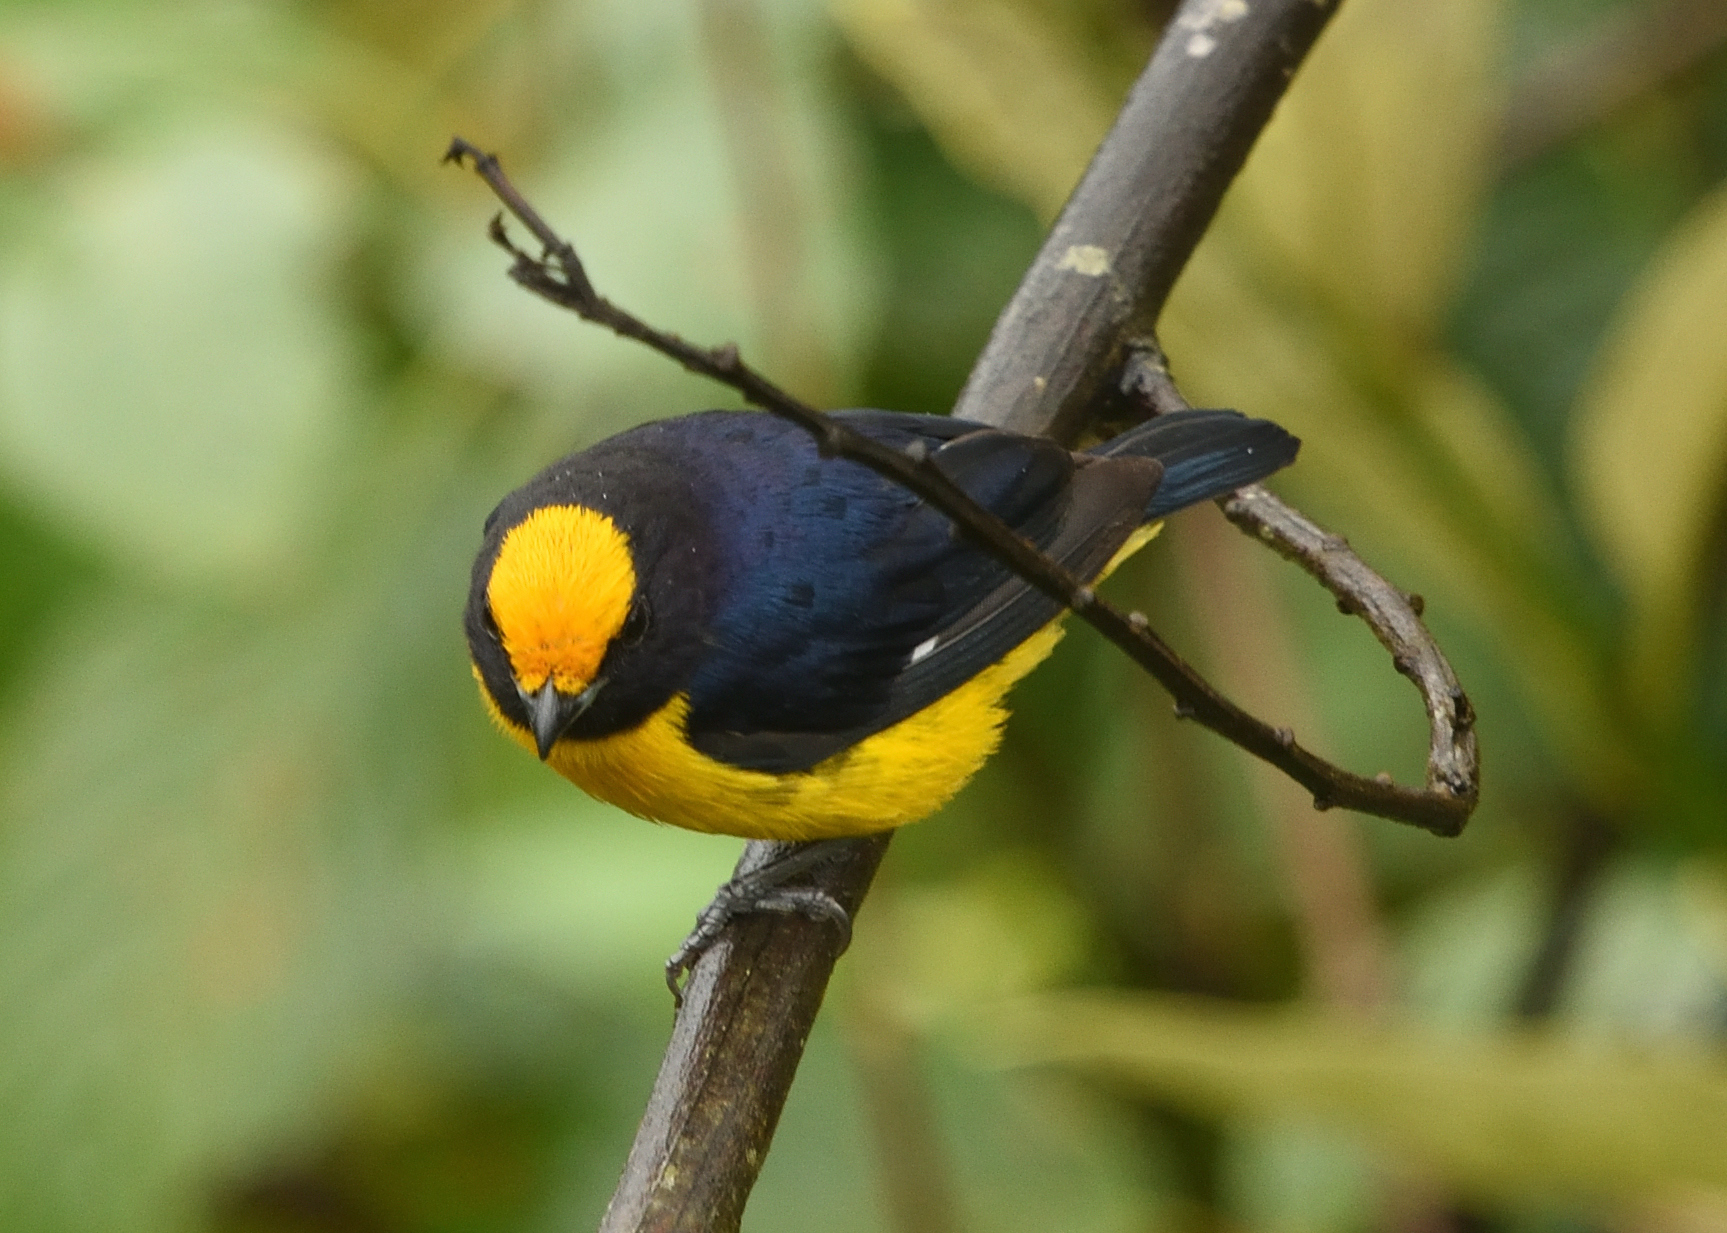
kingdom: Animalia
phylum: Chordata
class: Aves
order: Passeriformes
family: Fringillidae
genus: Euphonia
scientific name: Euphonia xanthogaster
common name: Orange-bellied euphonia
